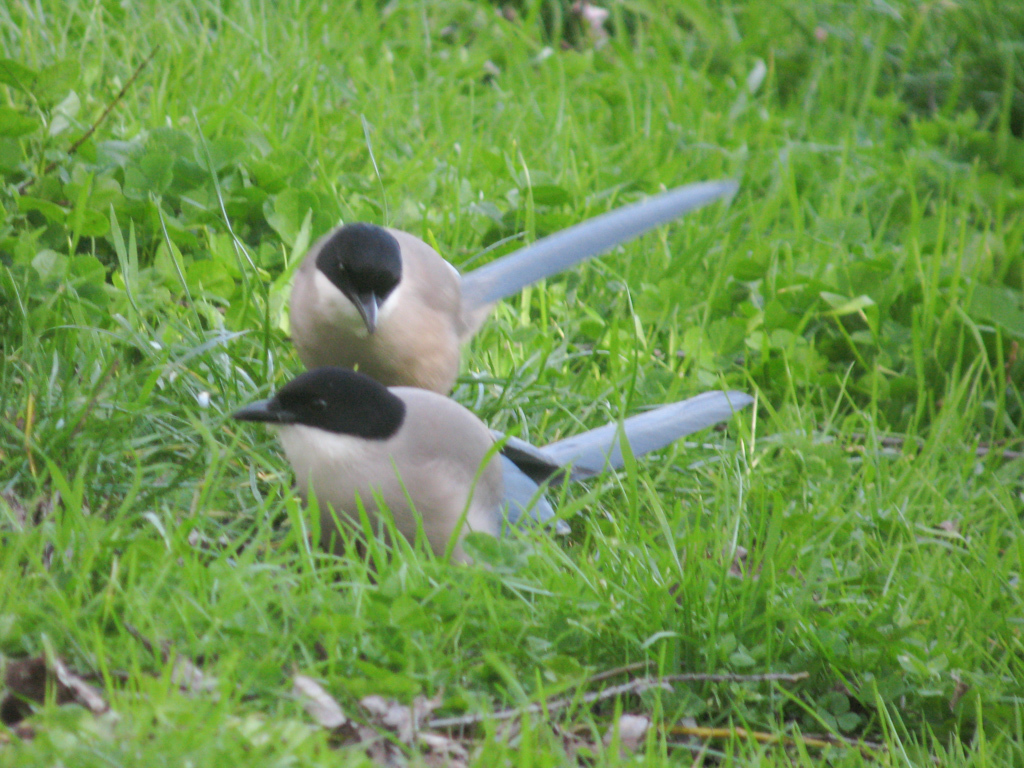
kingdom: Animalia
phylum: Chordata
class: Aves
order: Passeriformes
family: Corvidae
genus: Cyanopica
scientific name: Cyanopica cooki
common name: Iberian magpie
